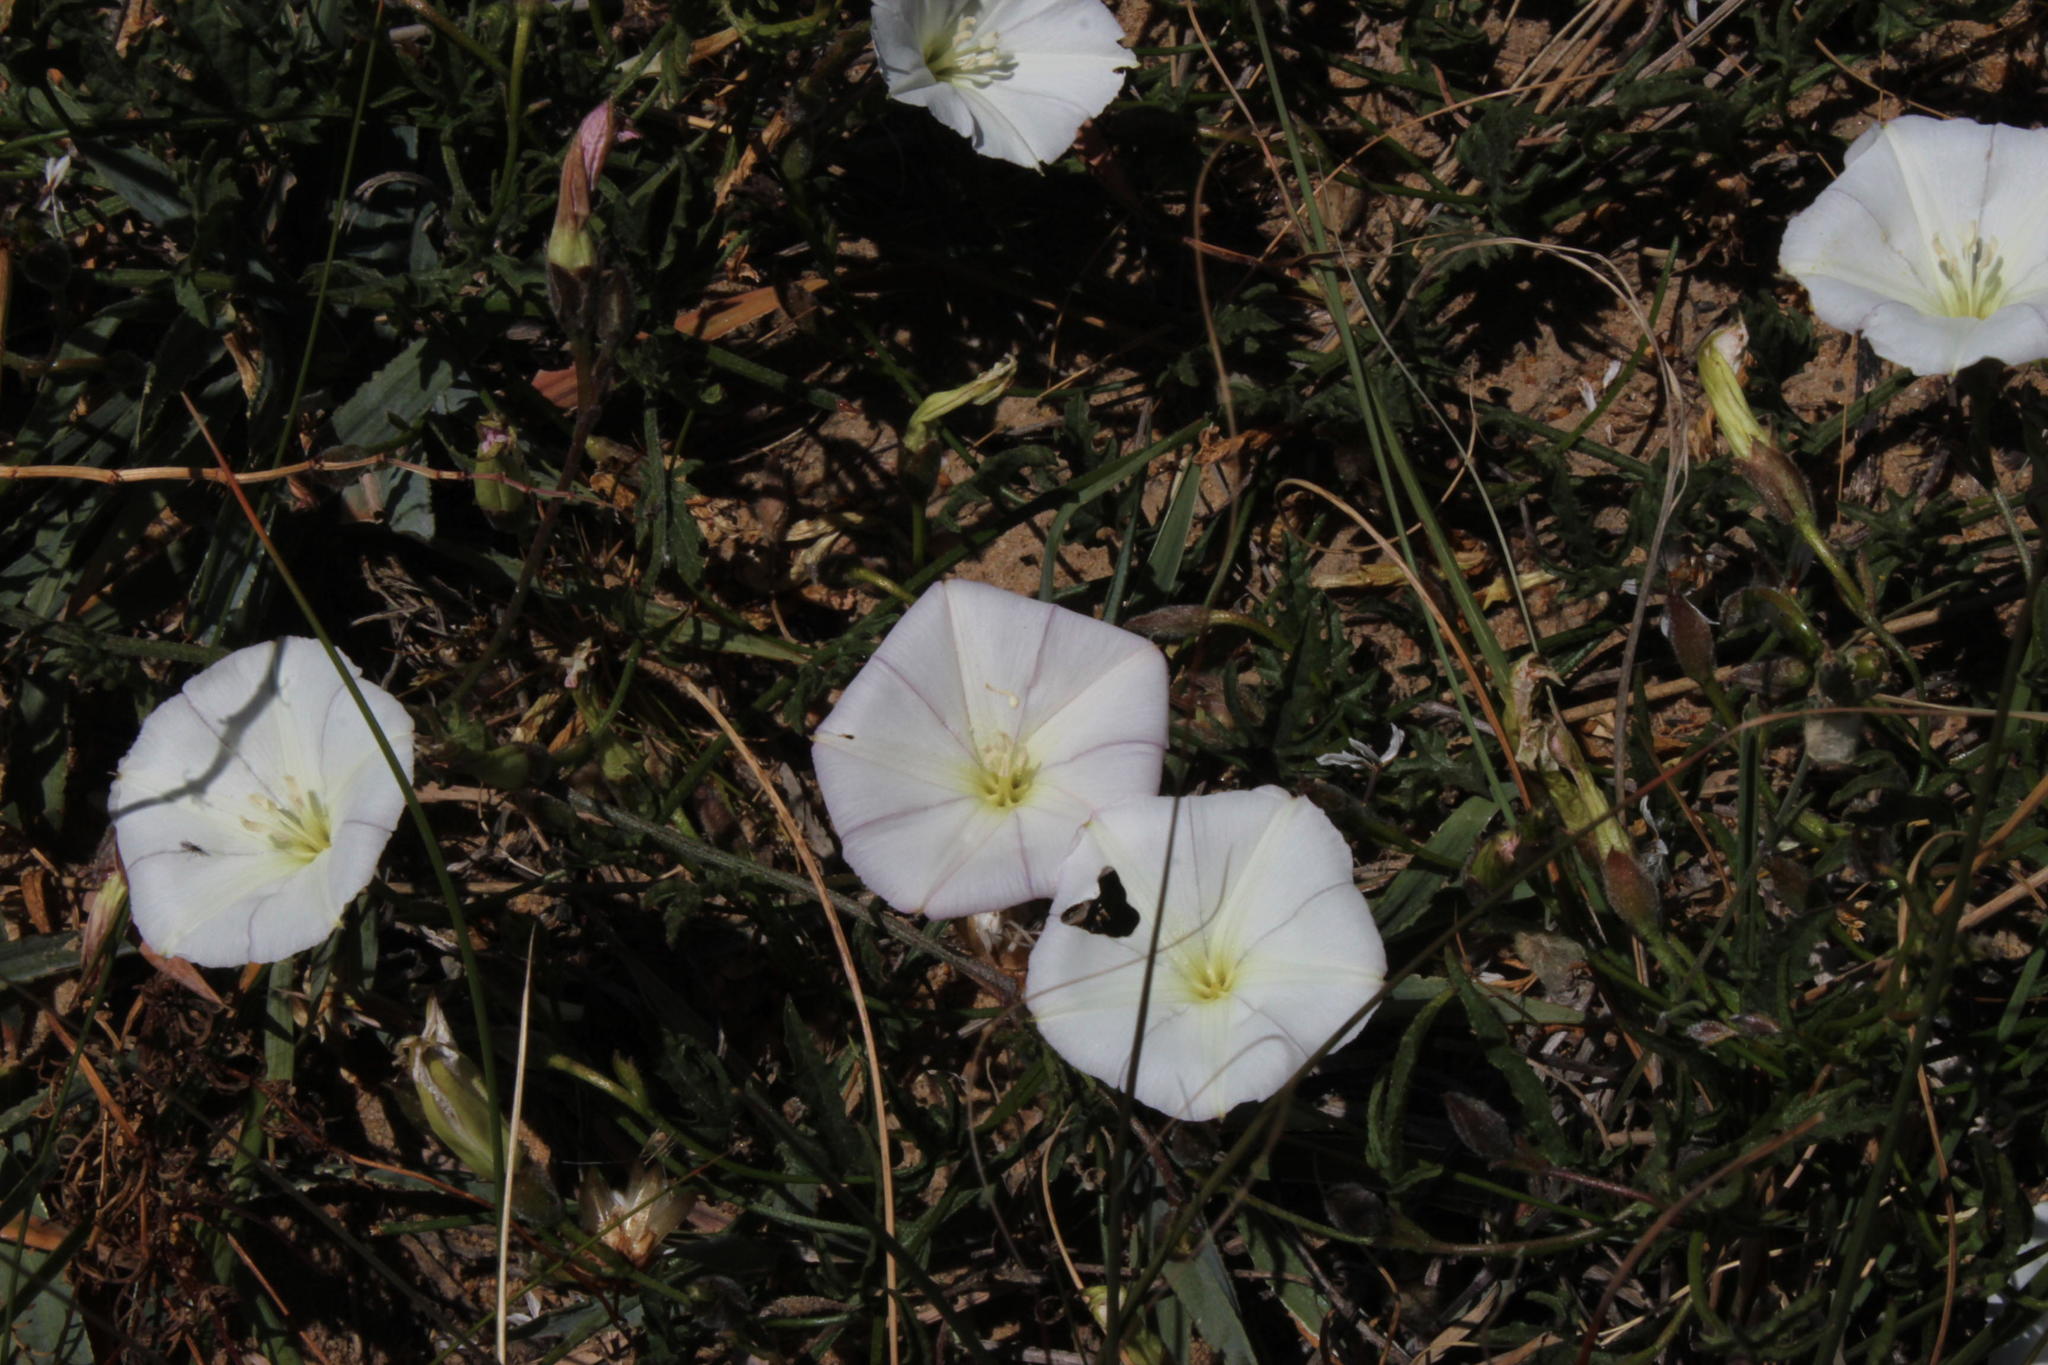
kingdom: Plantae
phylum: Tracheophyta
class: Magnoliopsida
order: Solanales
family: Convolvulaceae
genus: Convolvulus
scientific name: Convolvulus capensis
